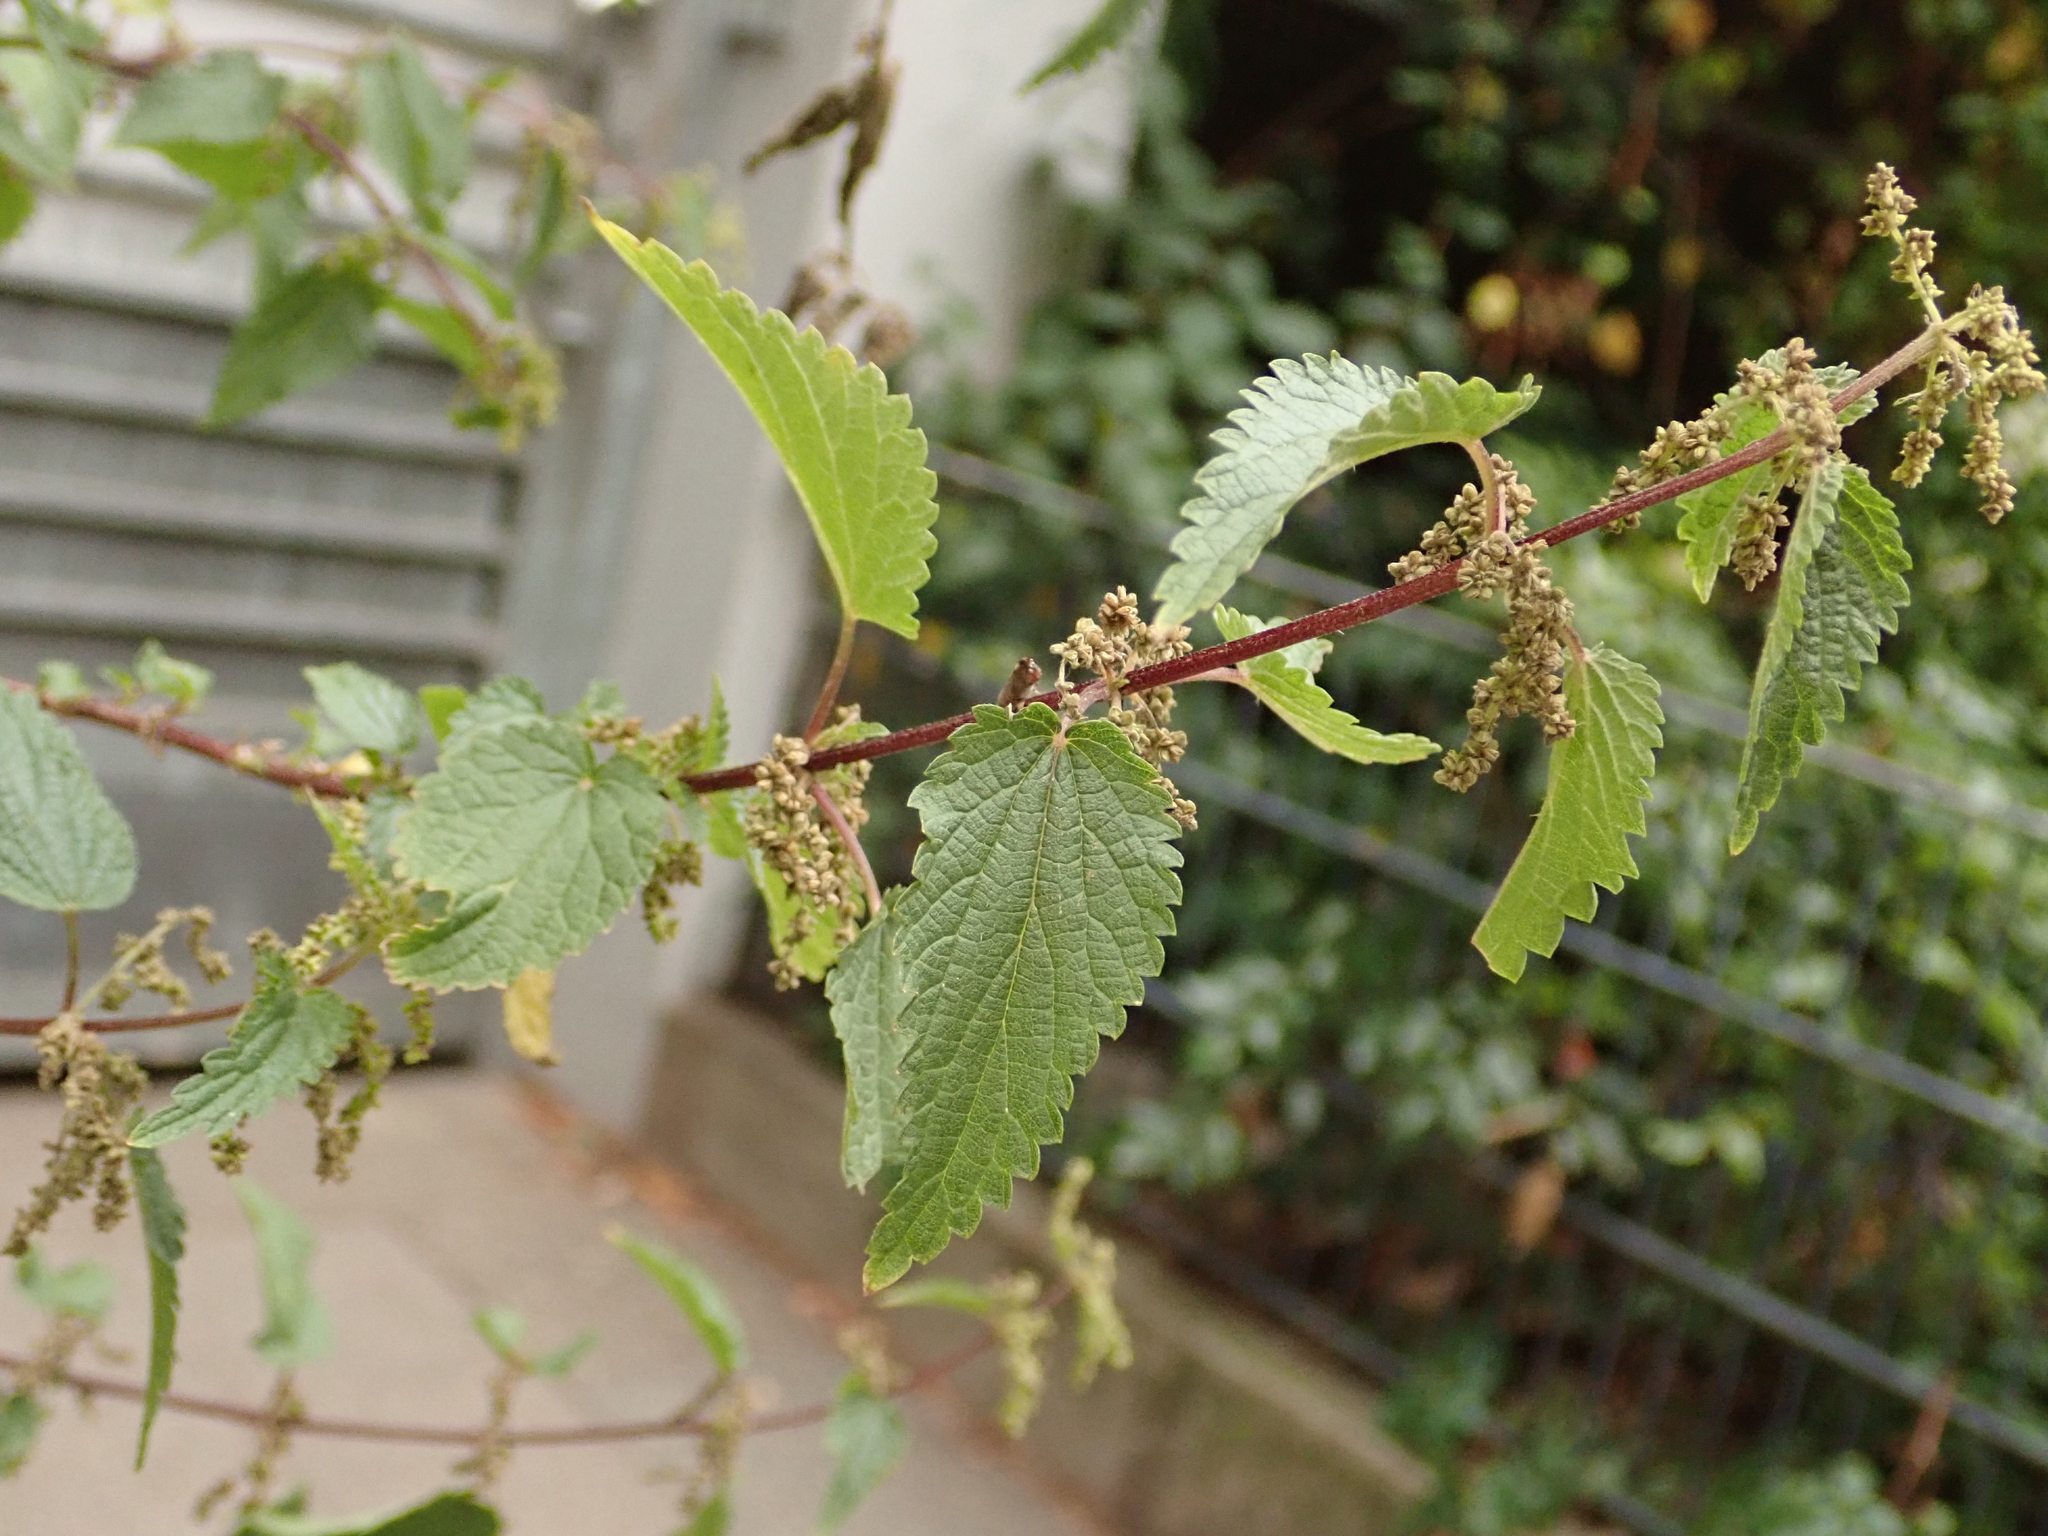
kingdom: Plantae
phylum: Tracheophyta
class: Magnoliopsida
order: Rosales
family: Urticaceae
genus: Urtica
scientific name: Urtica dioica
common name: Common nettle
